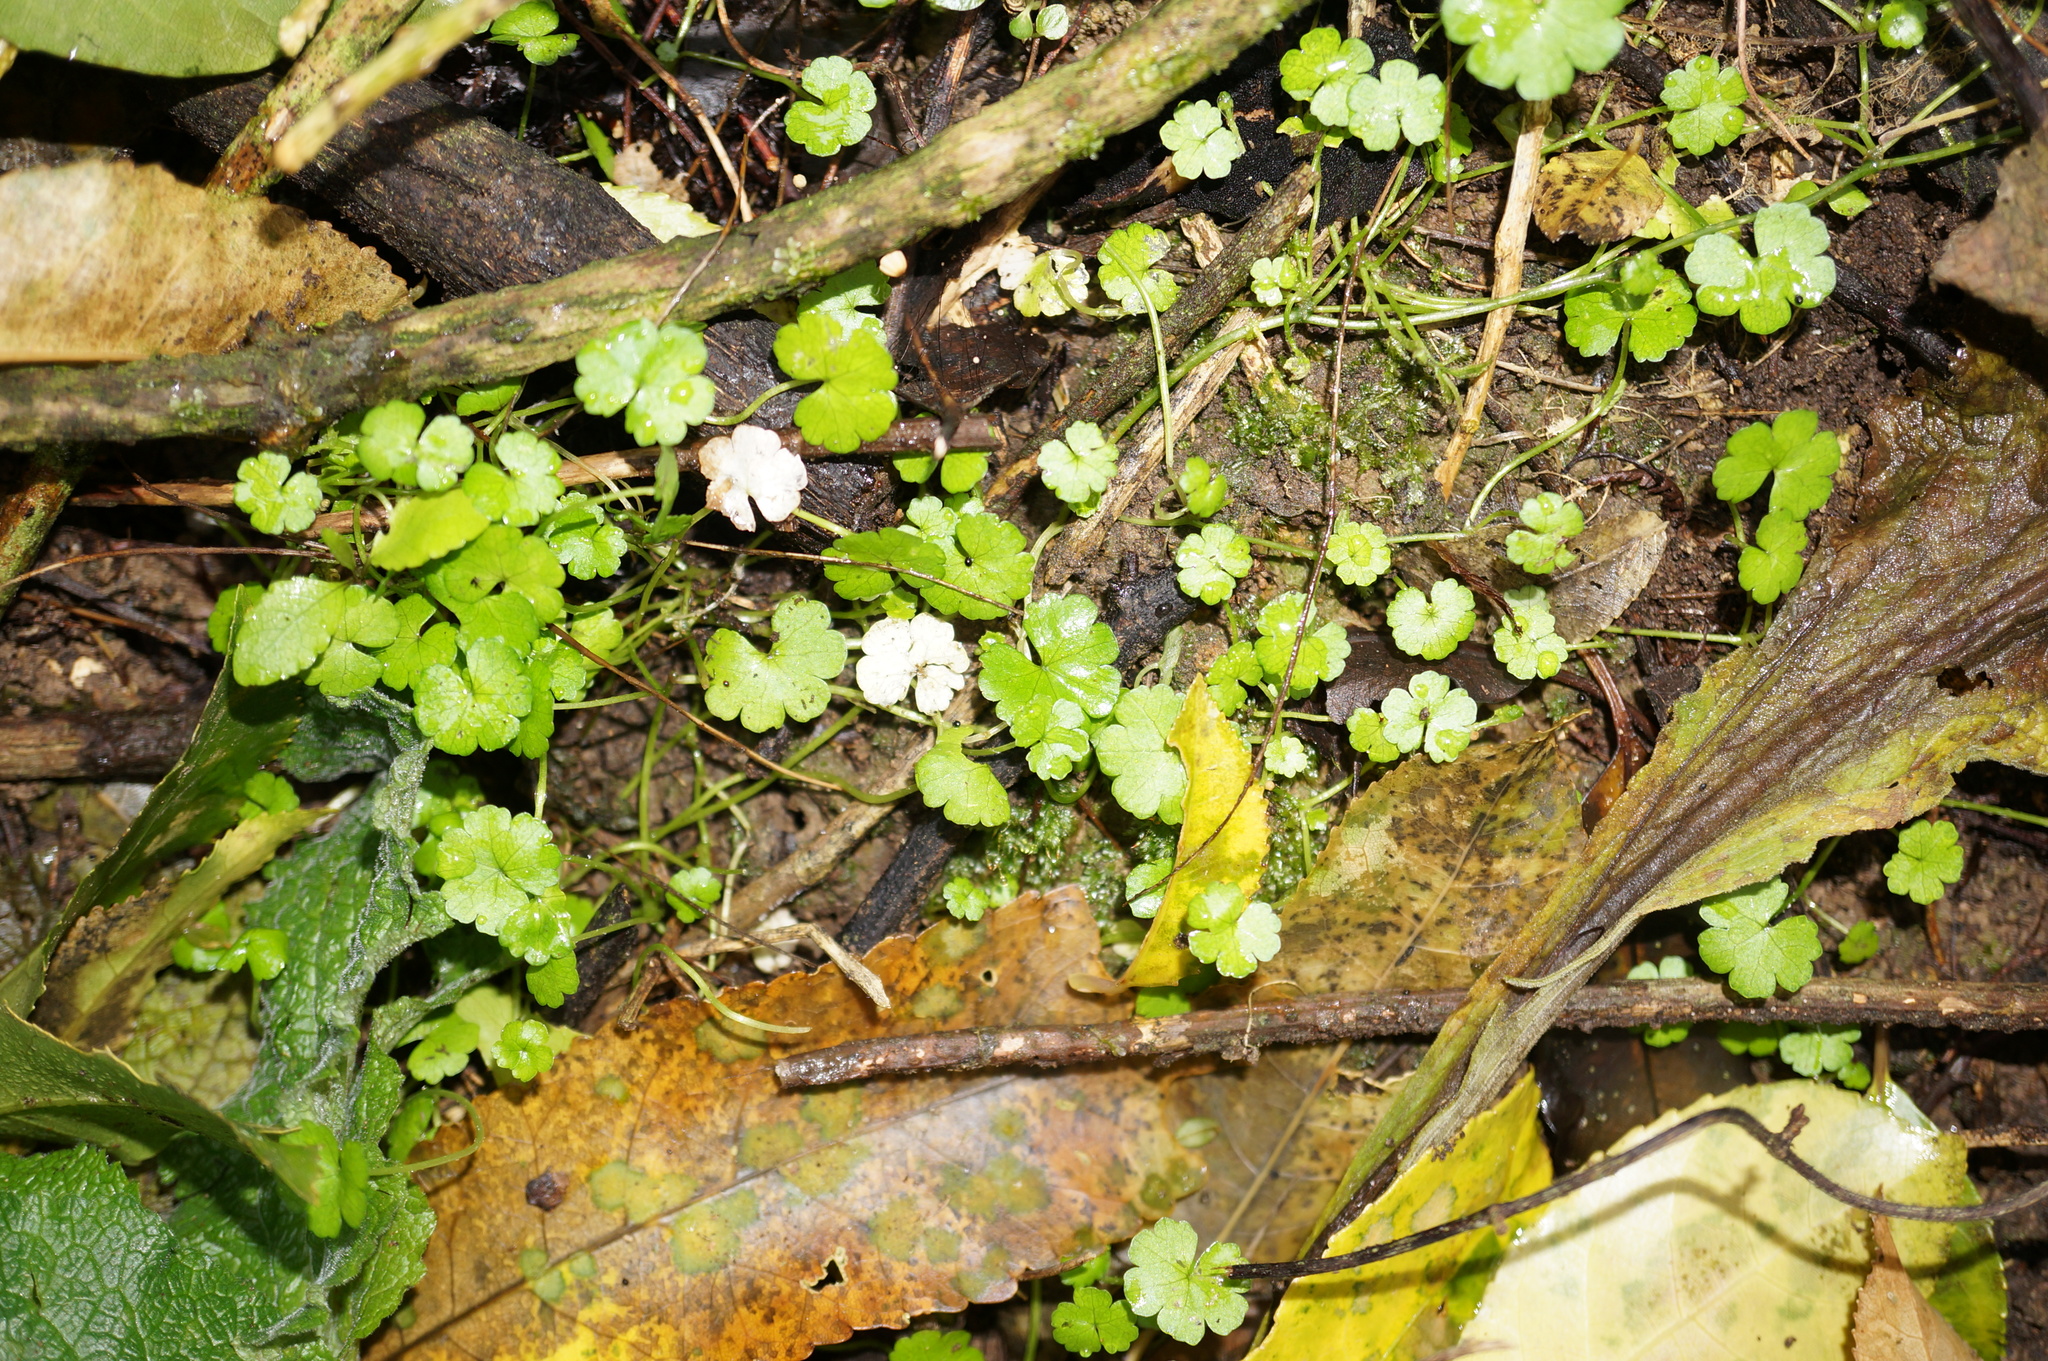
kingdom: Plantae
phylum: Tracheophyta
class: Magnoliopsida
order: Apiales
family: Araliaceae
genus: Hydrocotyle
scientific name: Hydrocotyle heteromeria
